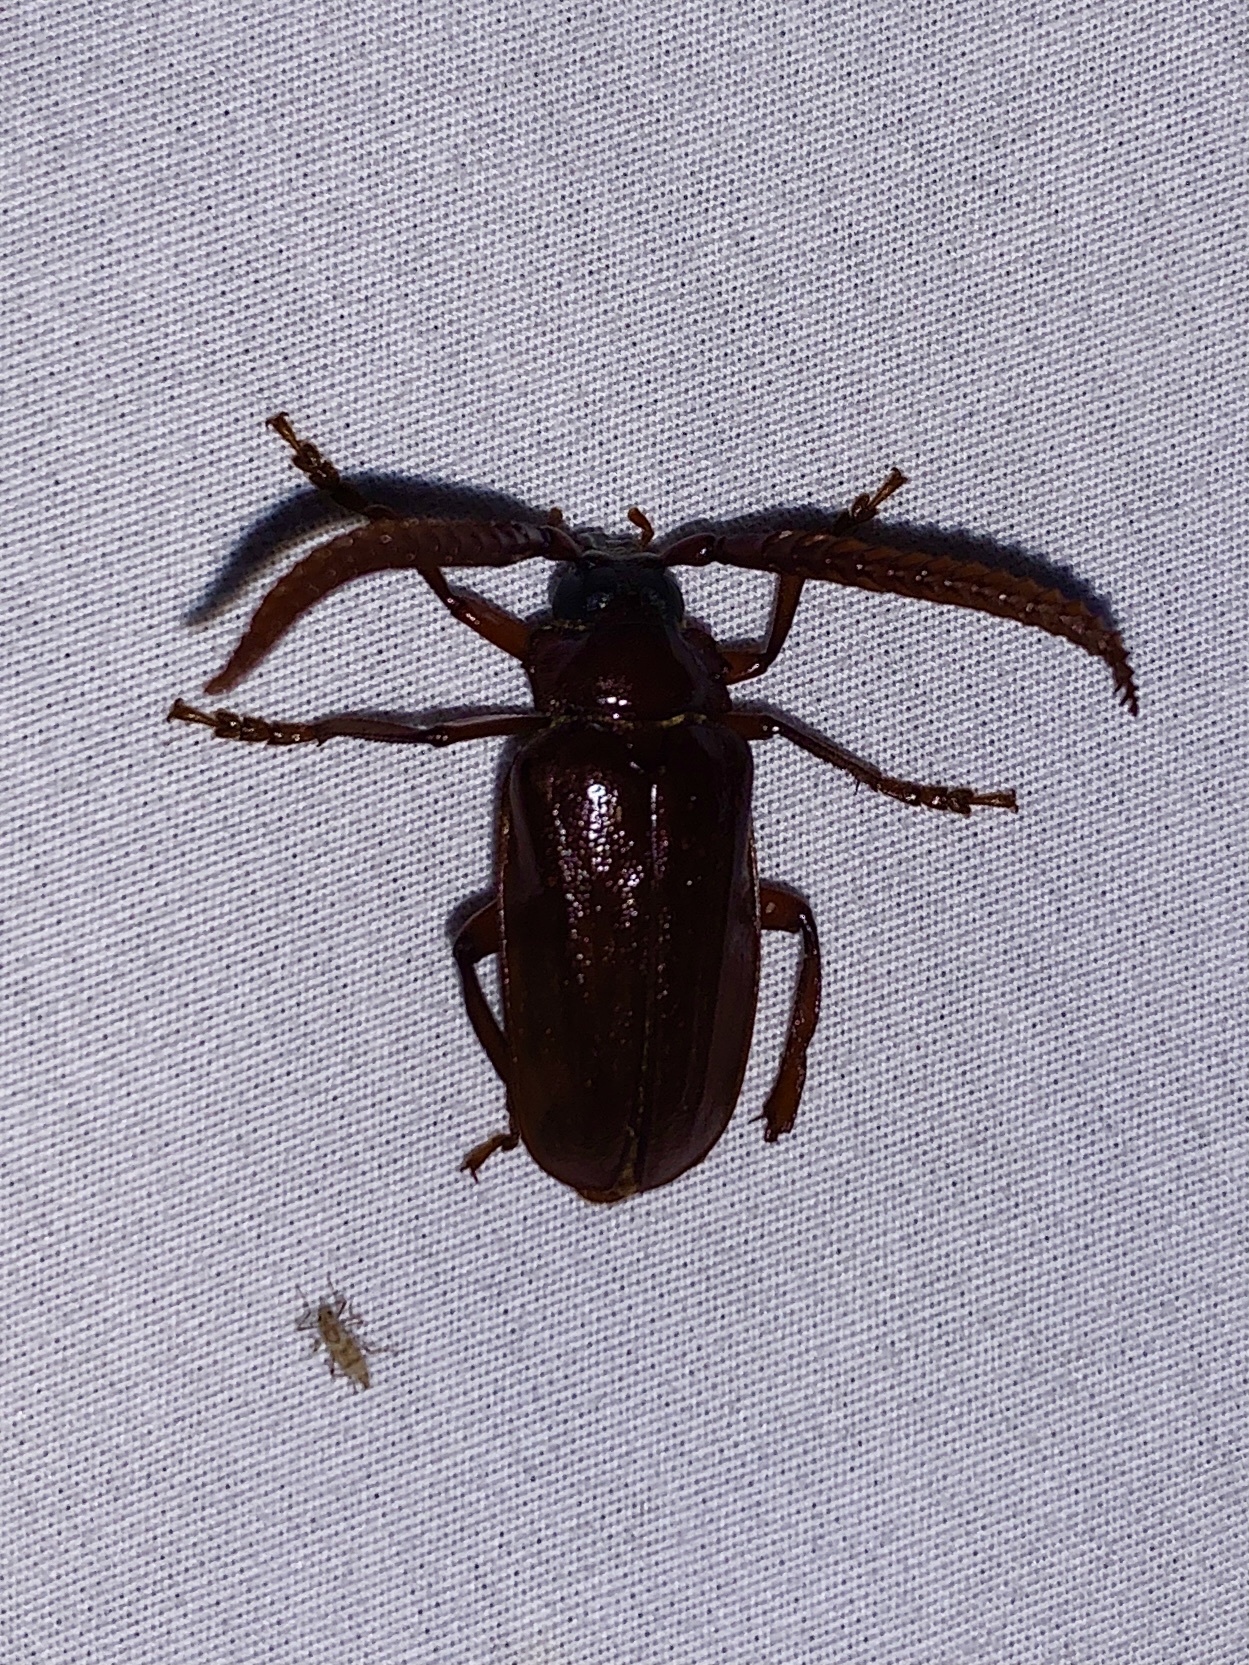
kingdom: Animalia
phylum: Arthropoda
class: Insecta
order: Coleoptera
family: Cerambycidae
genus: Prionus
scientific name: Prionus imbricornis
